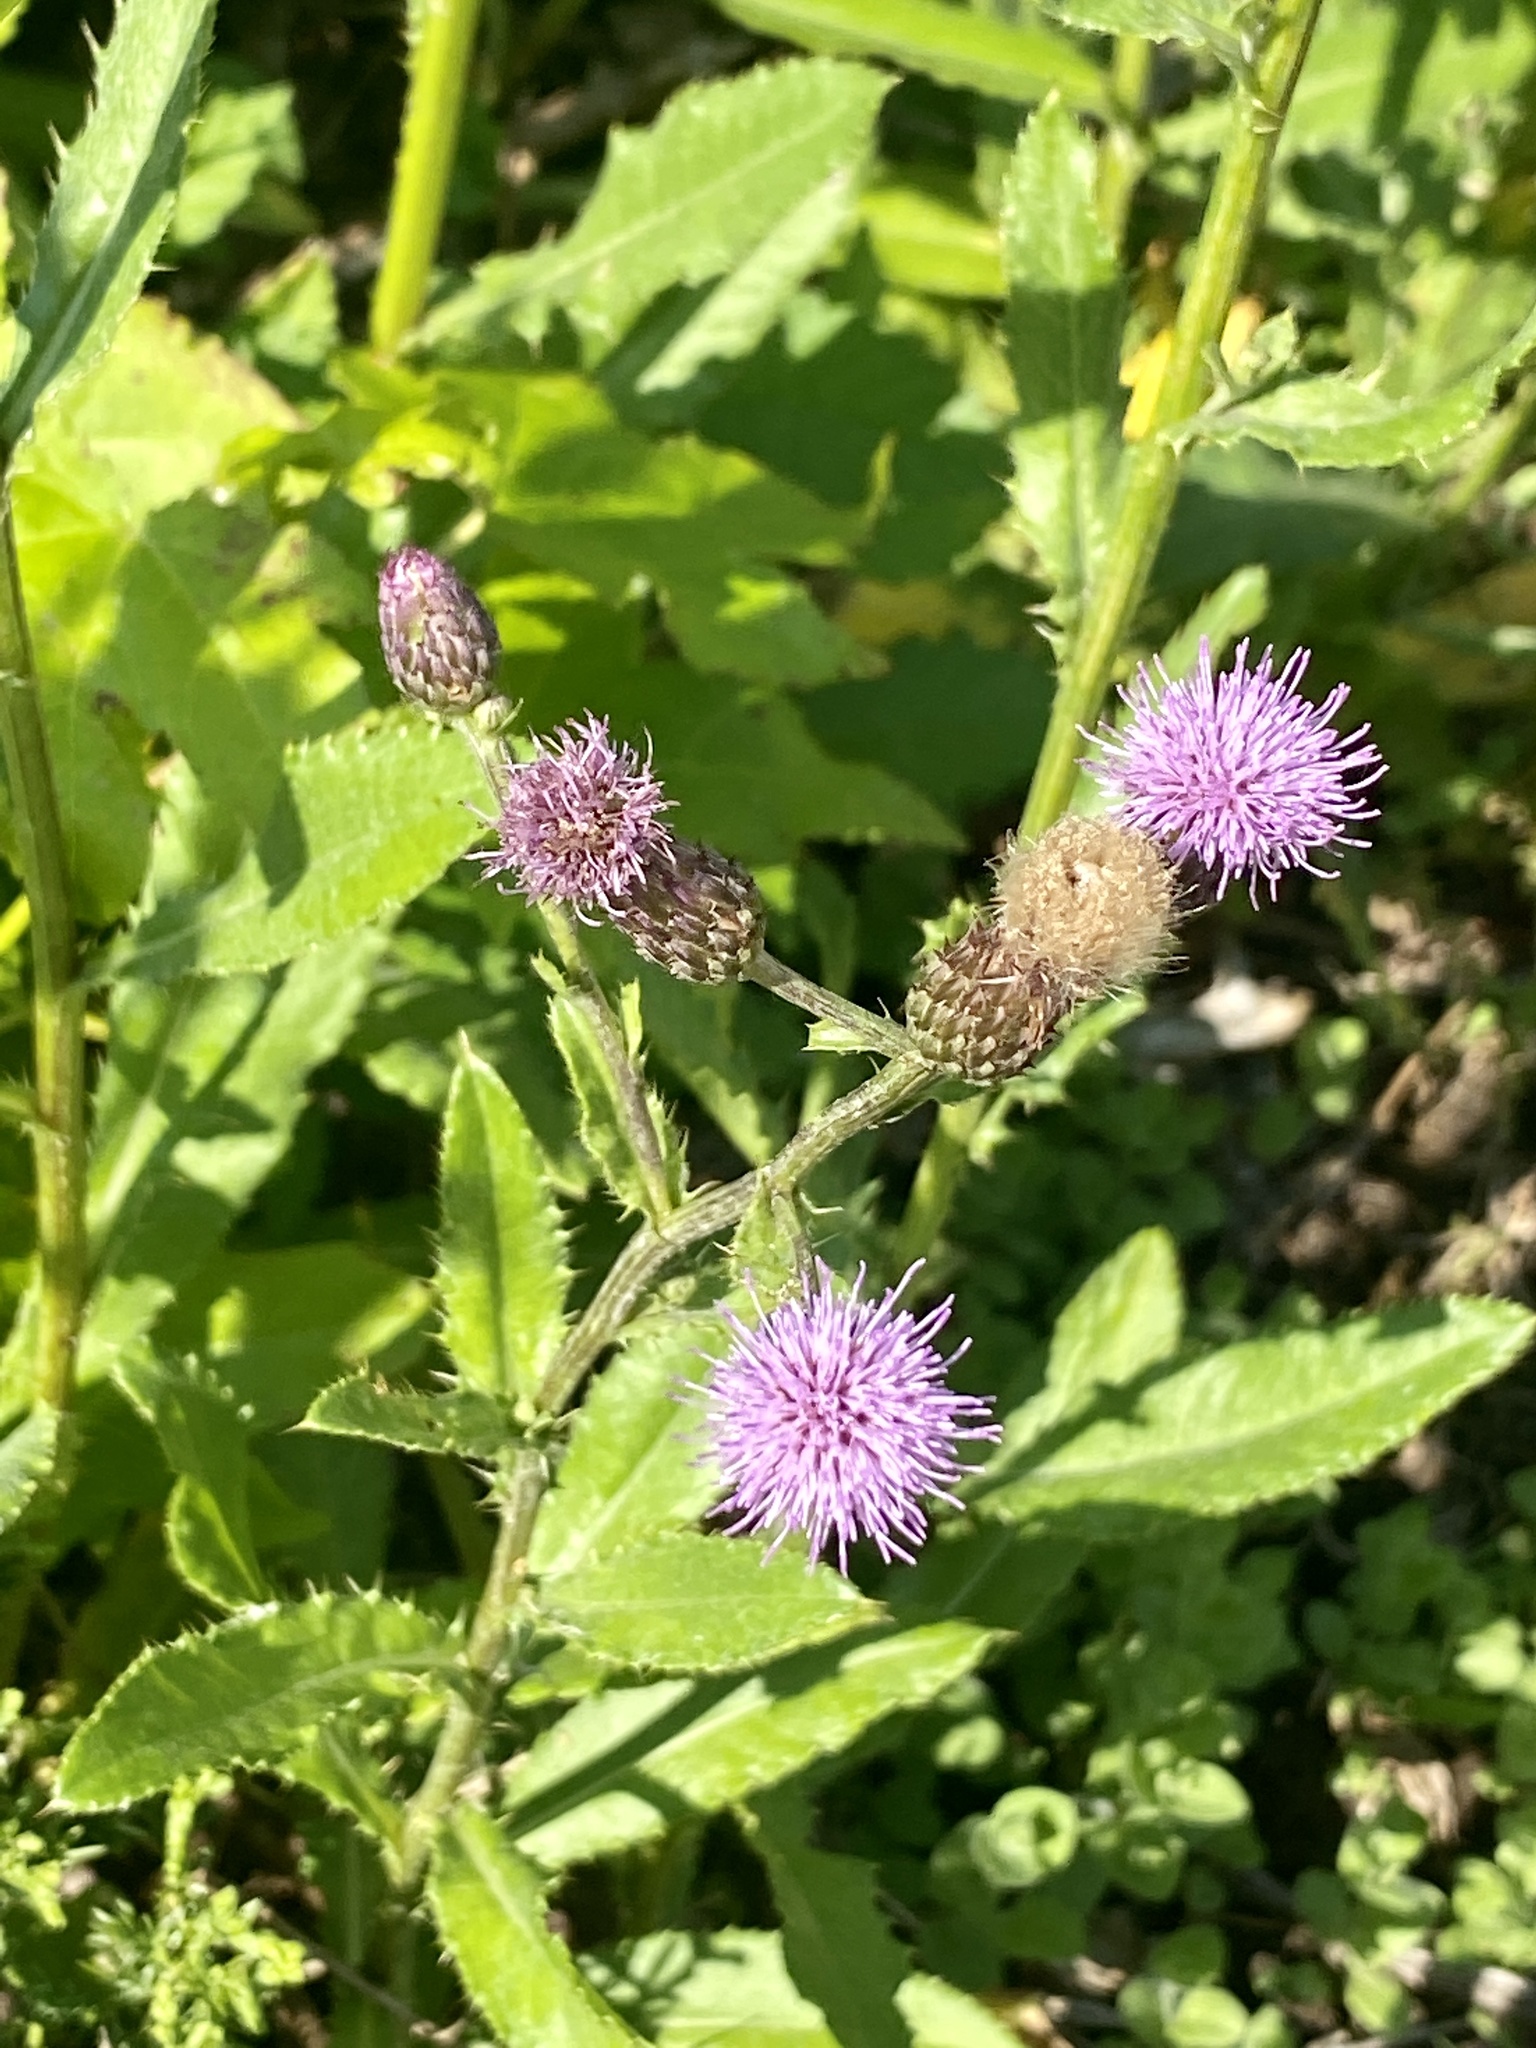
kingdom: Plantae
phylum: Tracheophyta
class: Magnoliopsida
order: Asterales
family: Asteraceae
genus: Cirsium
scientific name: Cirsium arvense
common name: Creeping thistle
